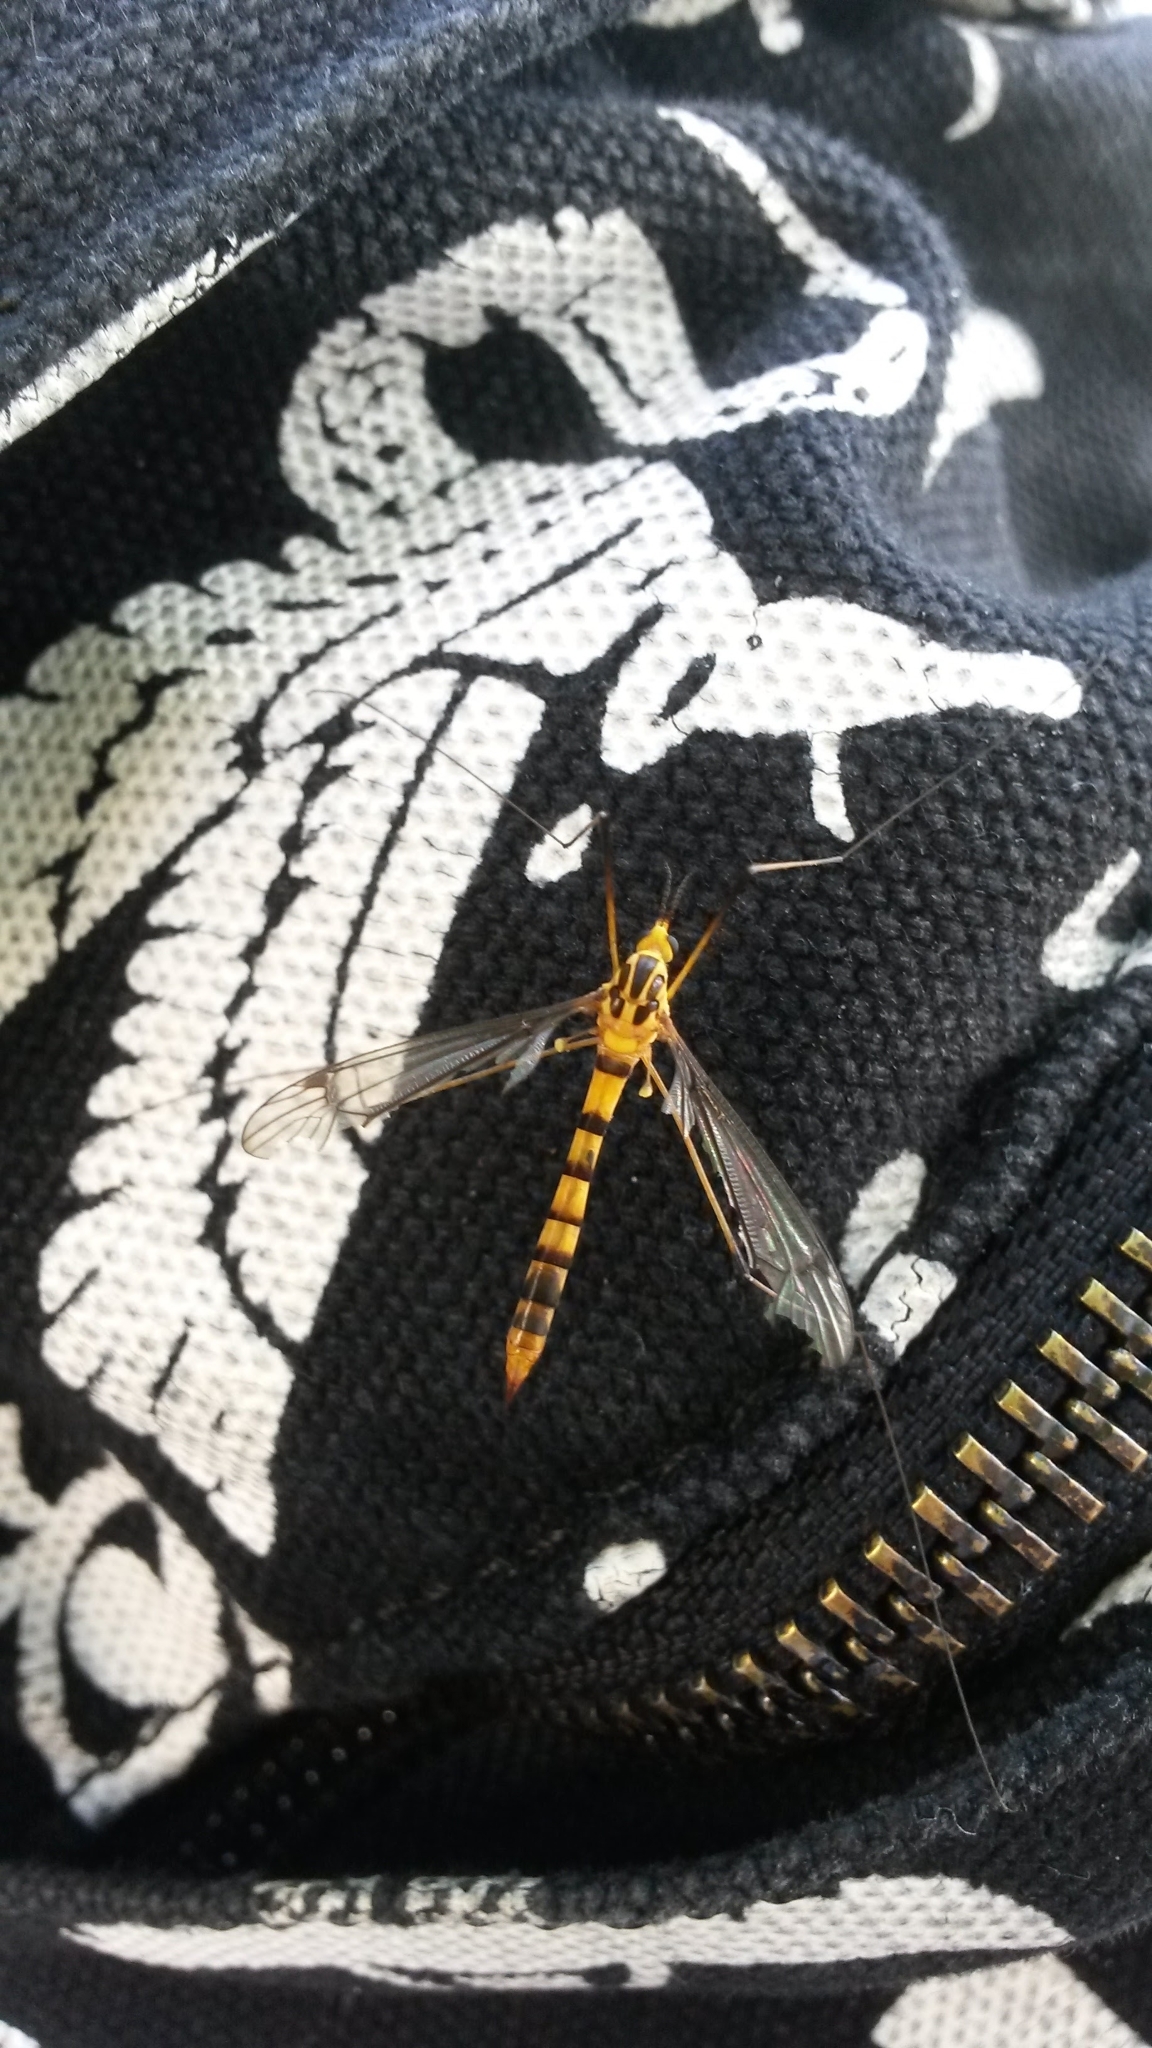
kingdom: Animalia
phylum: Arthropoda
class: Insecta
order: Diptera
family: Tipulidae
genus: Nephrotoma
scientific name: Nephrotoma australasiae
